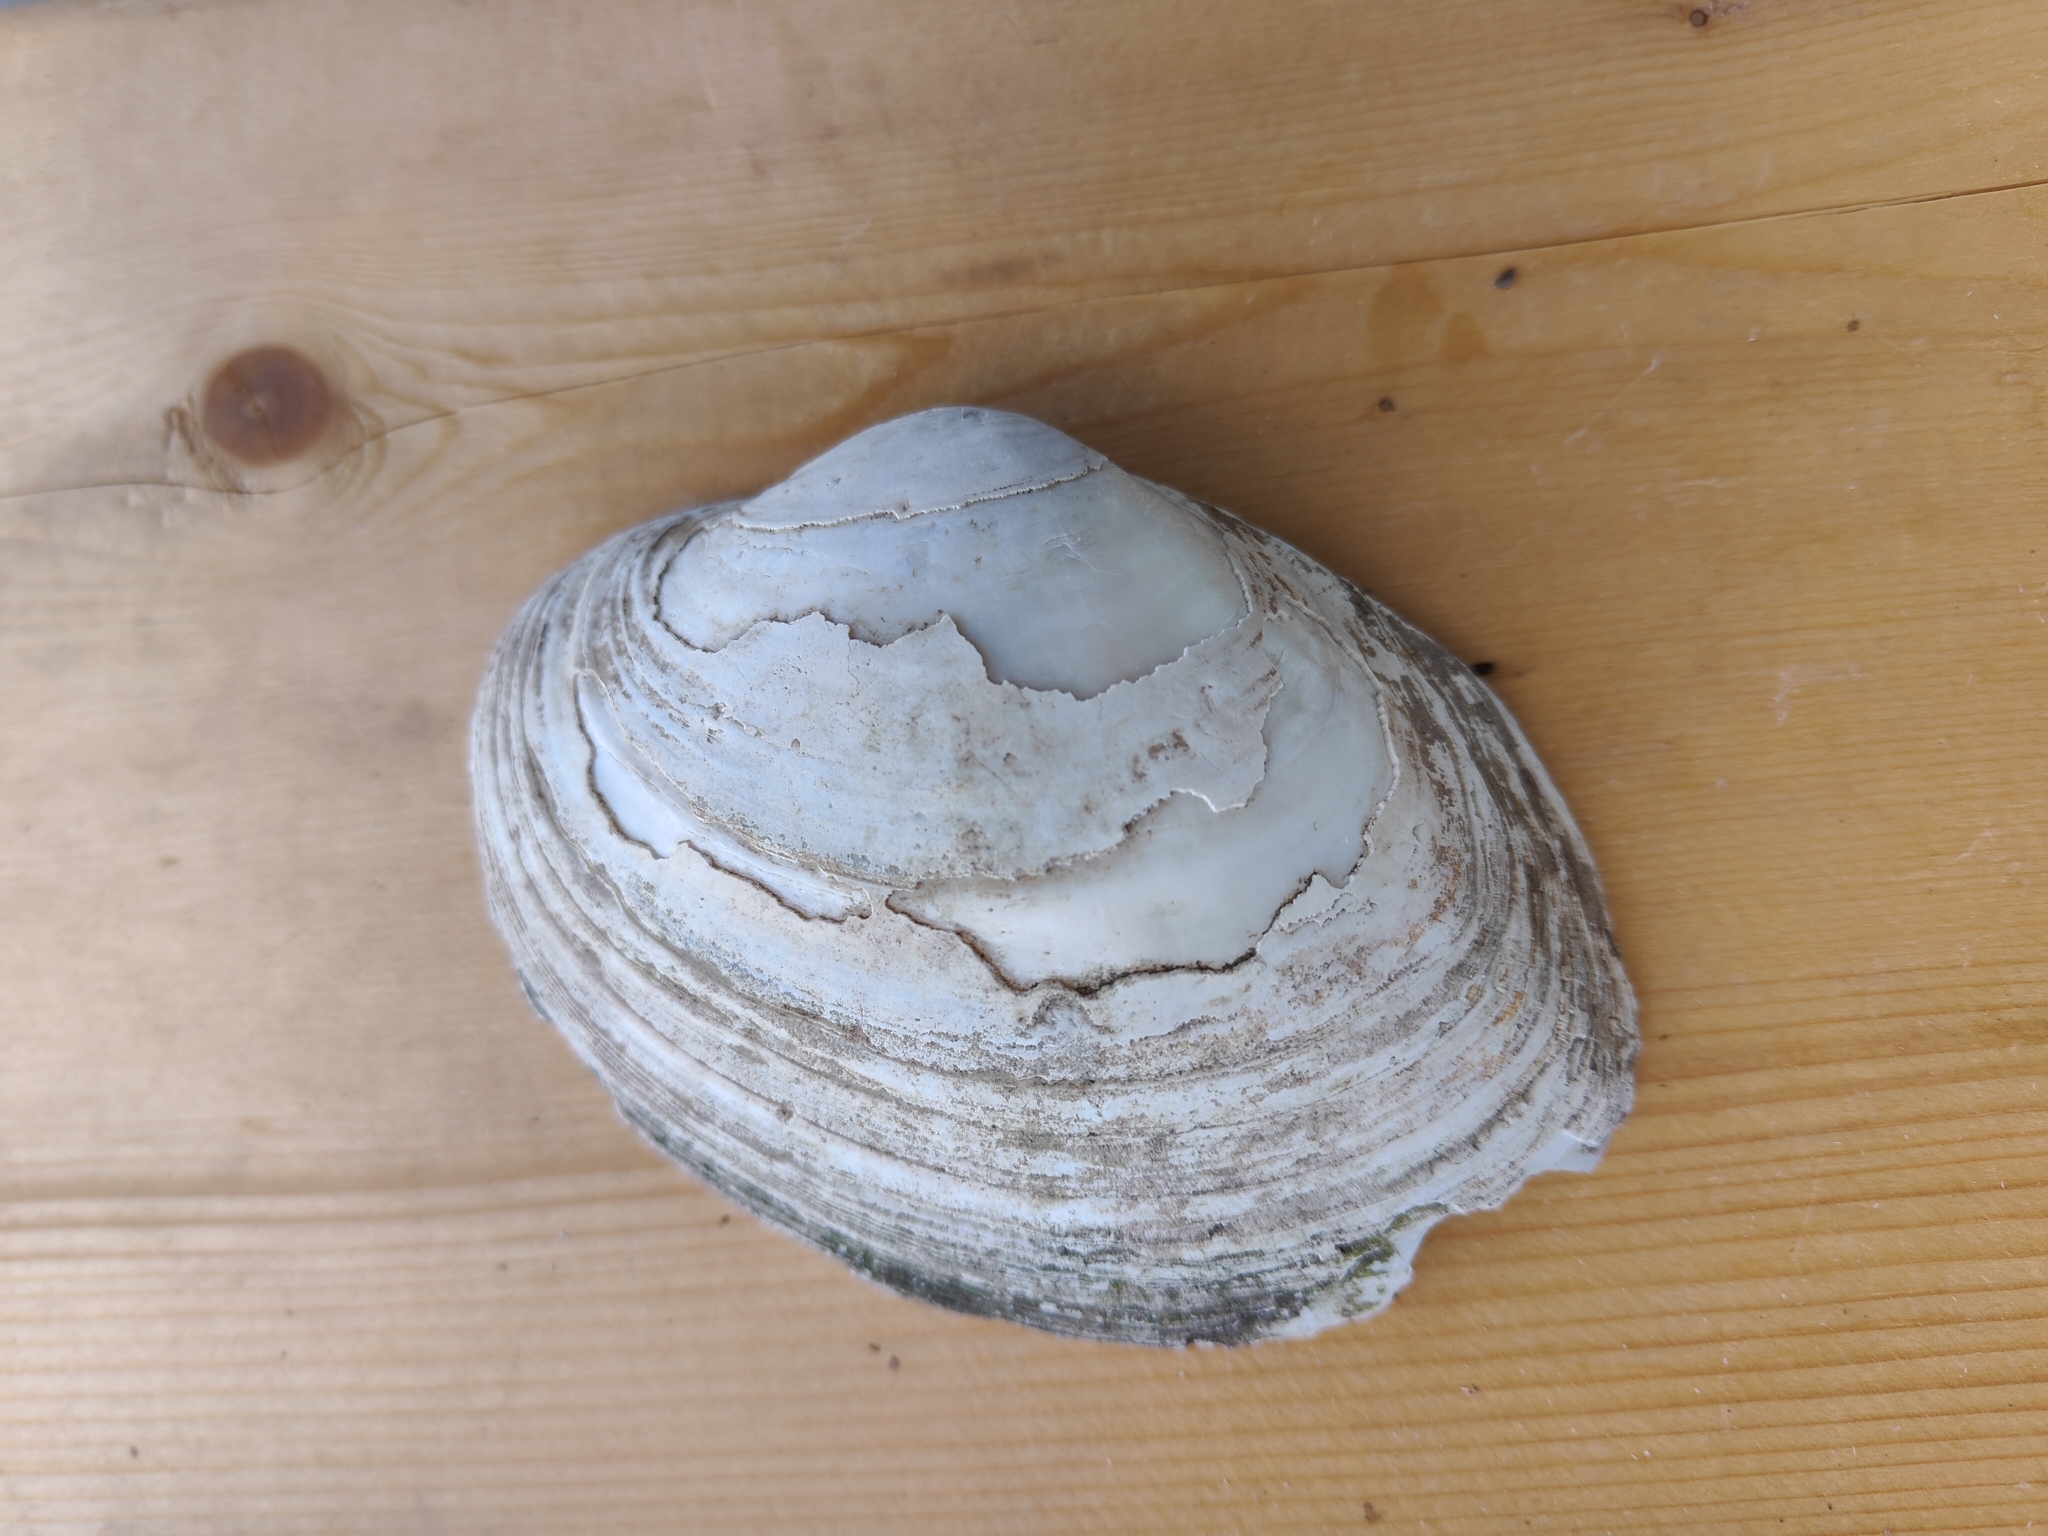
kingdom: Animalia
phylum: Mollusca
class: Bivalvia
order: Unionida
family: Unionidae
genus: Lampsilis
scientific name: Lampsilis cardium
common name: Plain pocketbook
